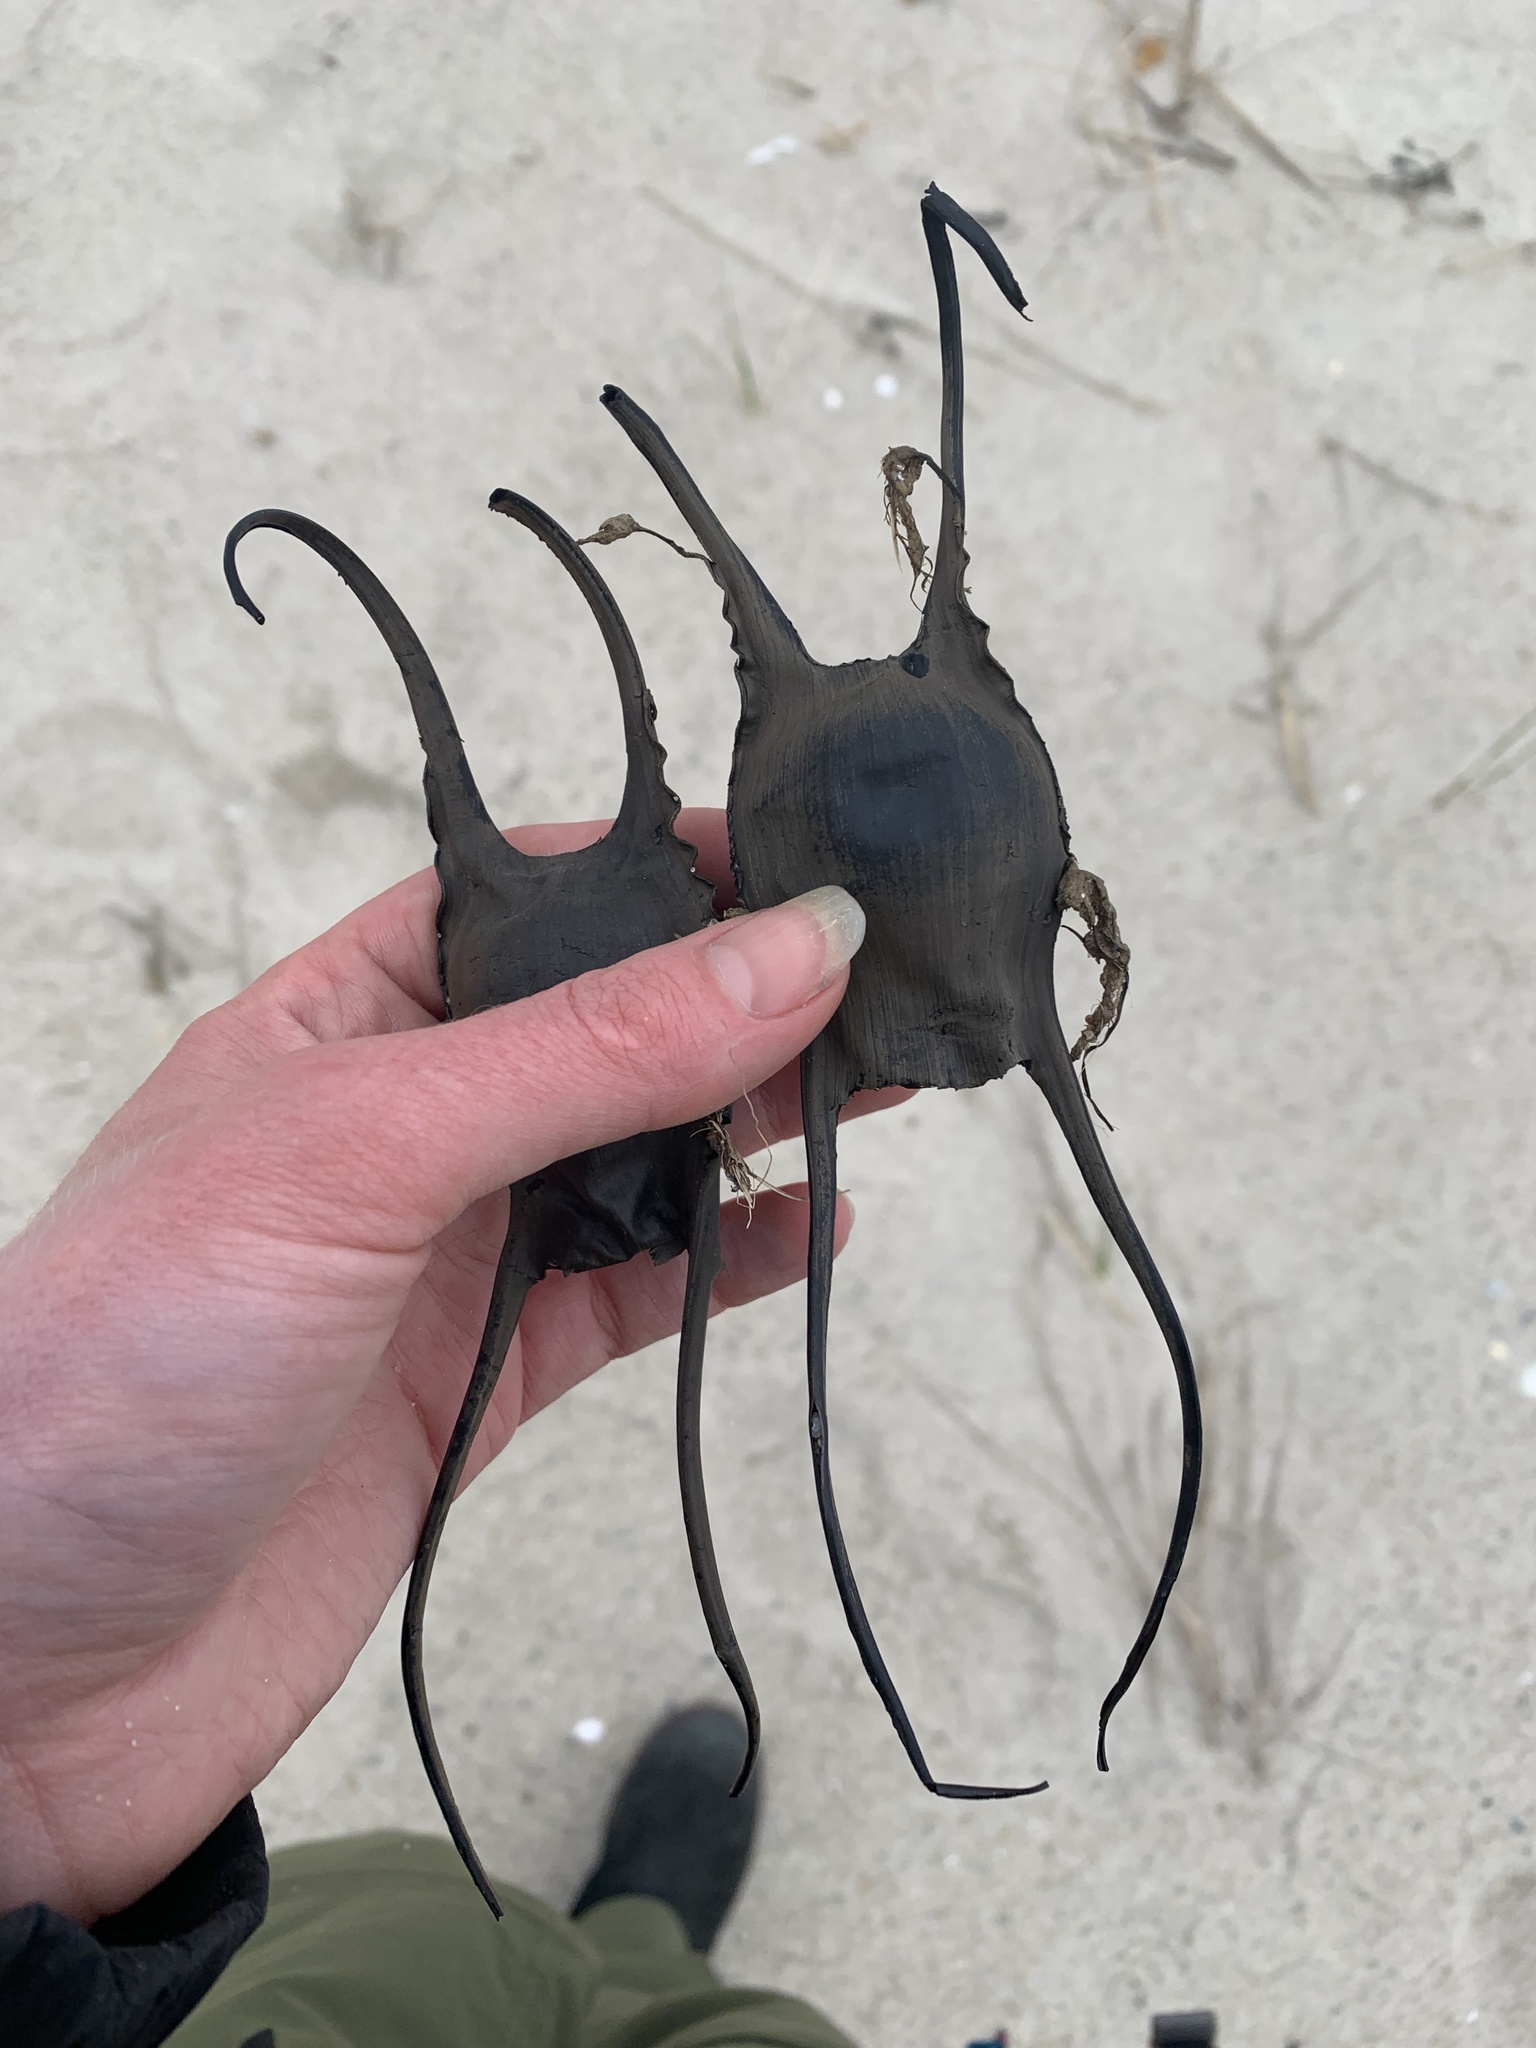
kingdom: Animalia
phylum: Chordata
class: Elasmobranchii
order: Rajiformes
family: Rajidae
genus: Leucoraja
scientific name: Leucoraja ocellata
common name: Winter skate
